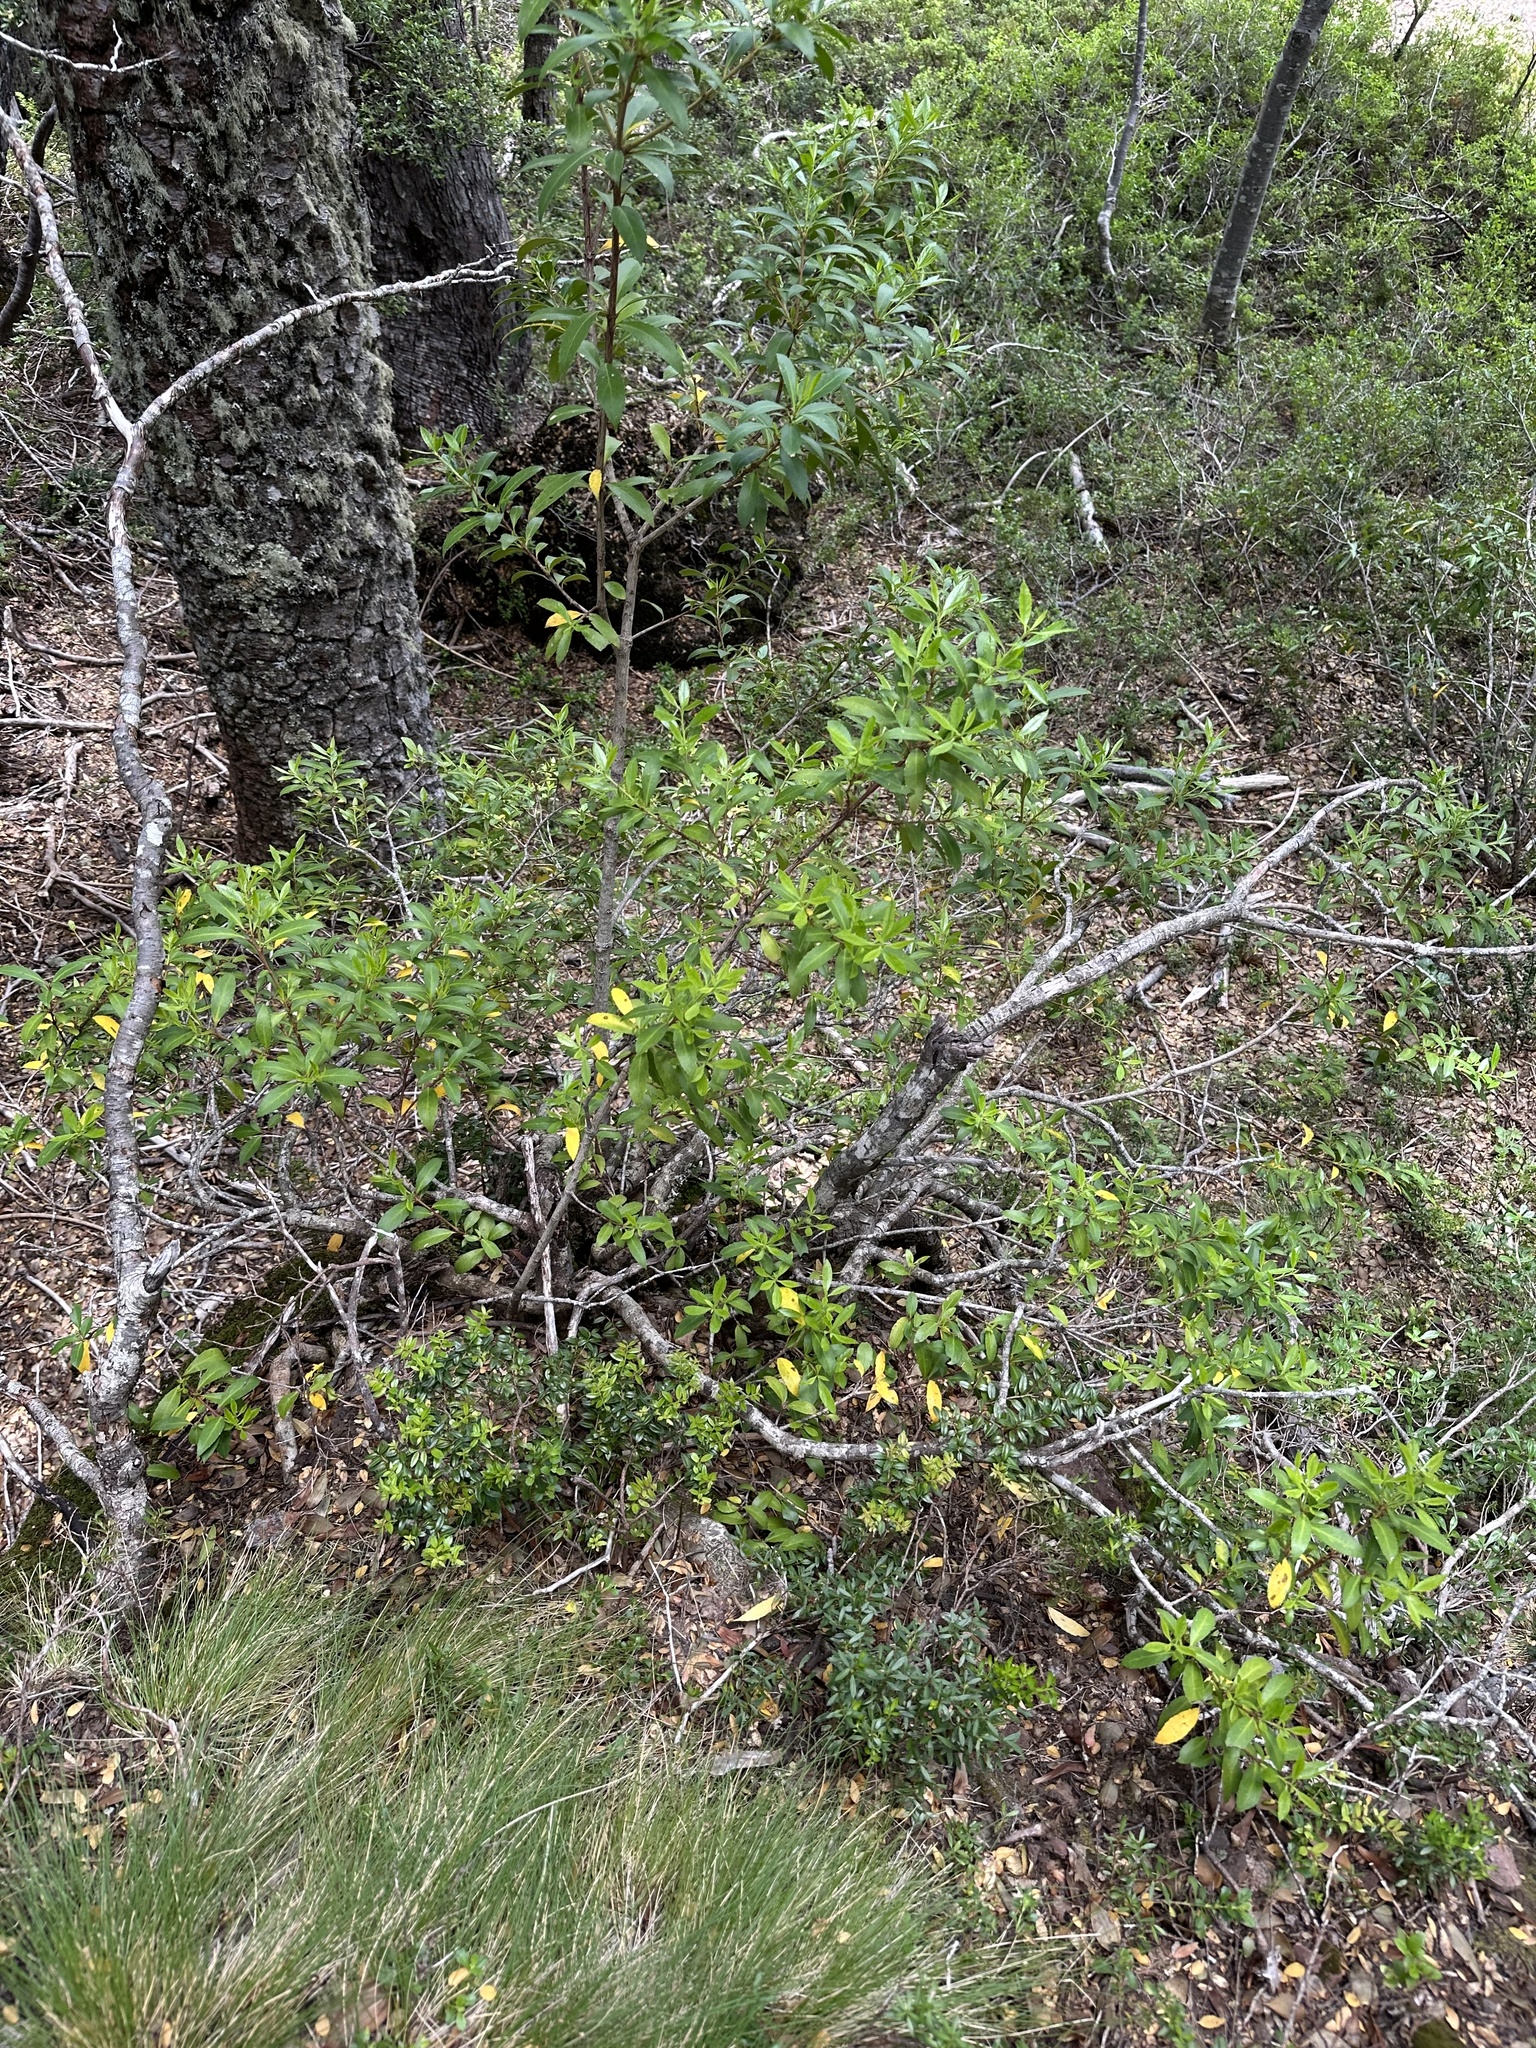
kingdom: Plantae
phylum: Tracheophyta
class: Magnoliopsida
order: Celastrales
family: Celastraceae
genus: Maytenus
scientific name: Maytenus magellanica
